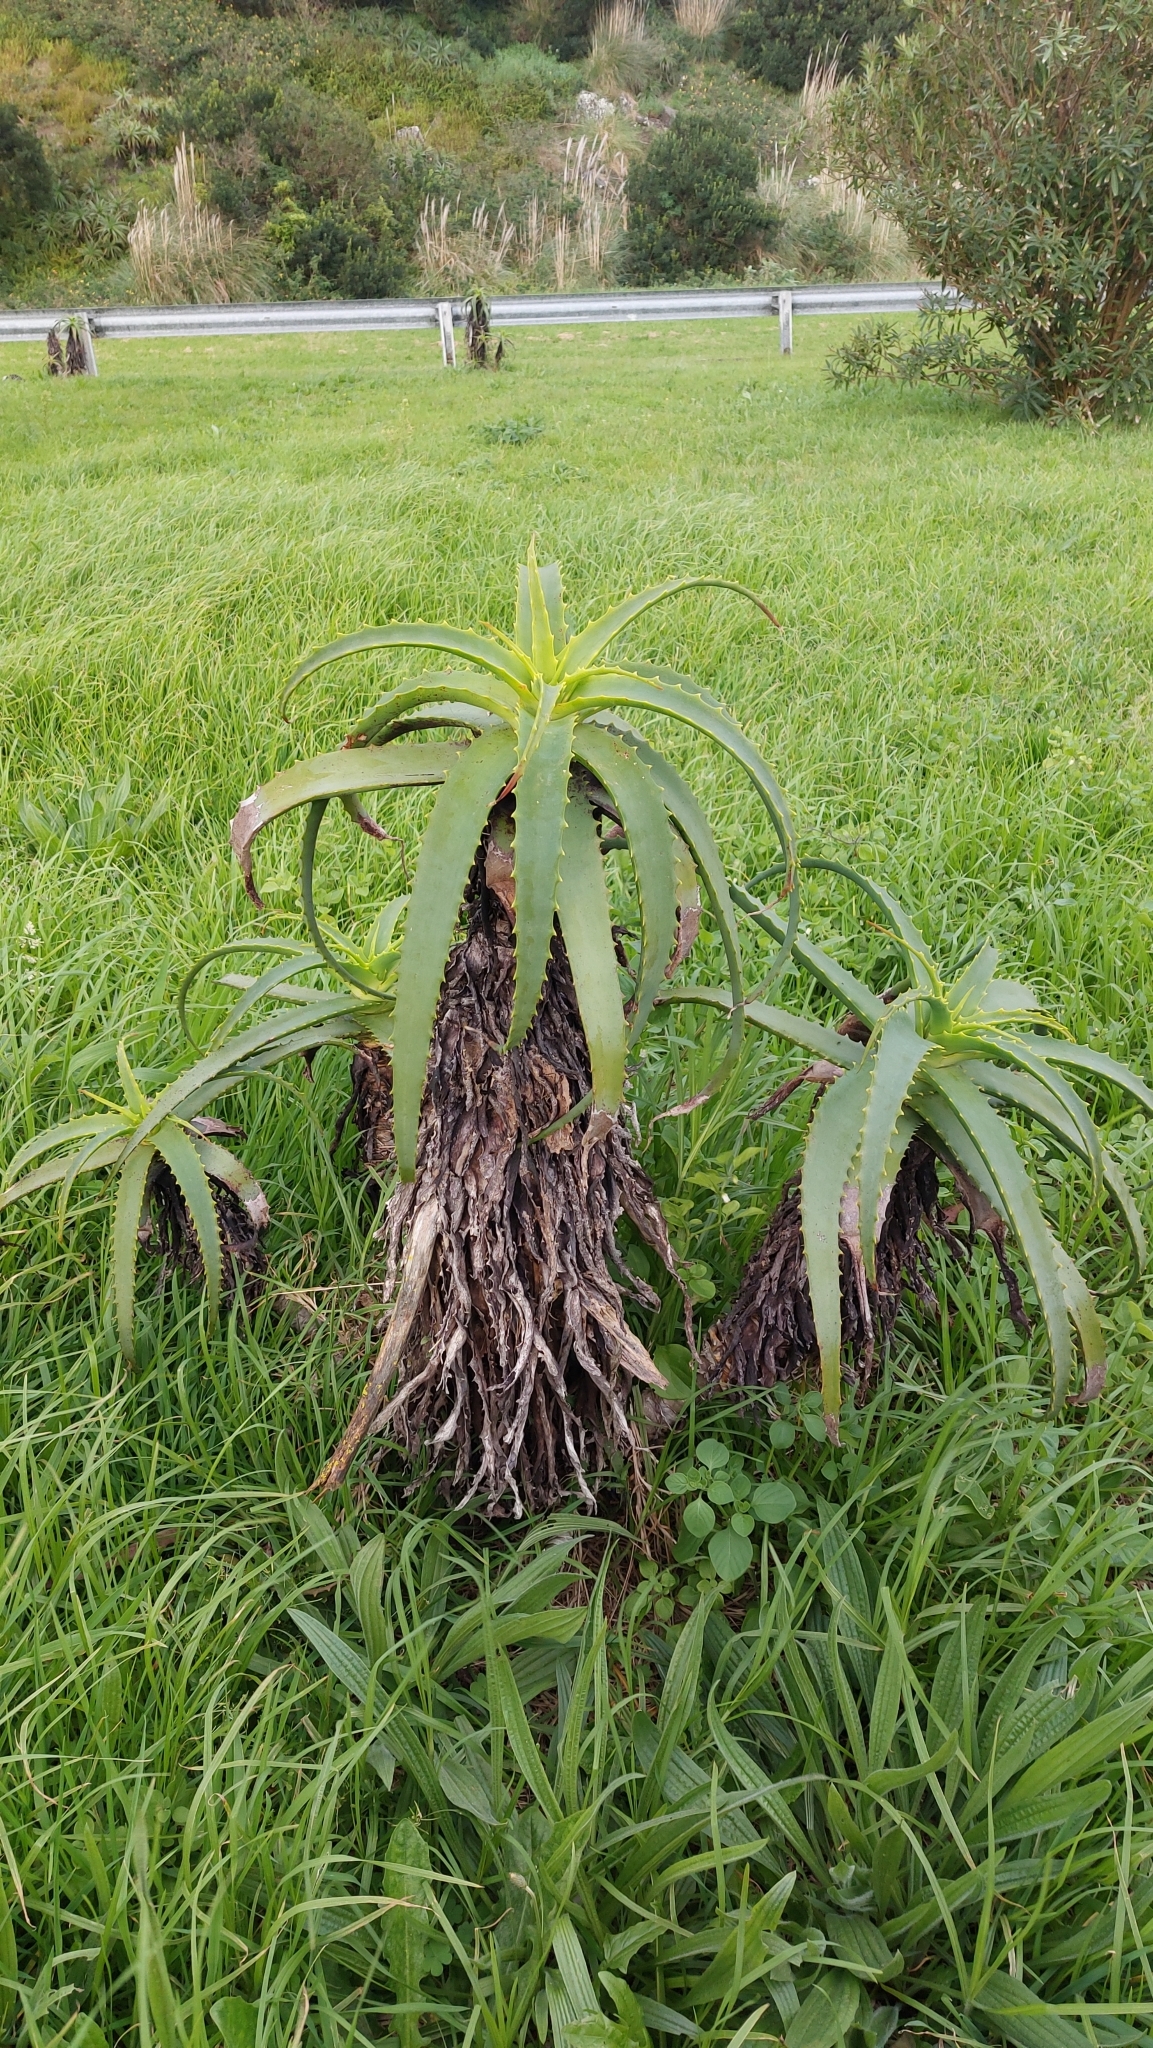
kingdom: Plantae
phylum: Tracheophyta
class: Liliopsida
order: Asparagales
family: Asphodelaceae
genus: Aloe
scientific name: Aloe arborescens
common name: Candelabra aloe
